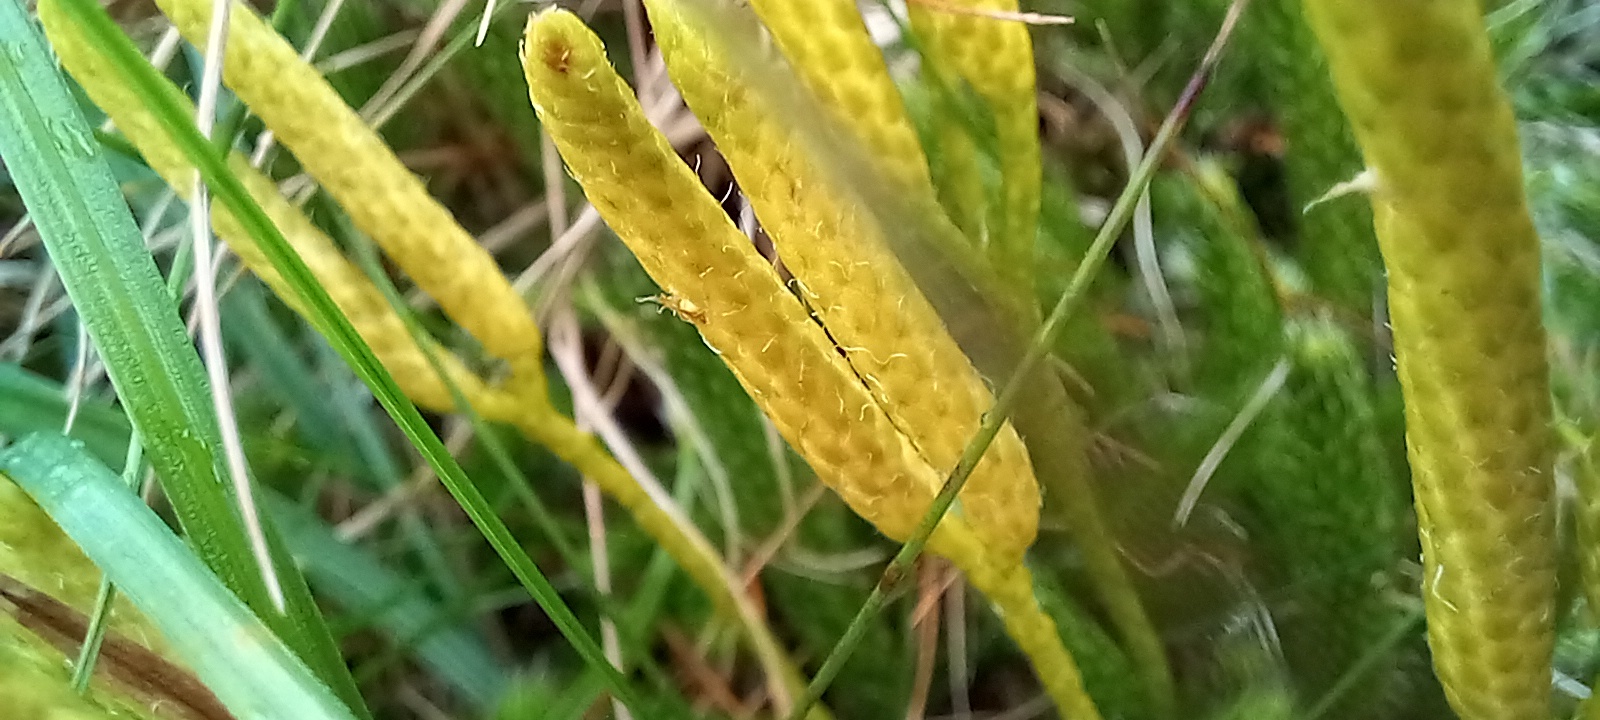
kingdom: Plantae
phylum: Tracheophyta
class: Lycopodiopsida
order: Lycopodiales
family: Lycopodiaceae
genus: Lycopodium
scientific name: Lycopodium clavatum
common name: Stag's-horn clubmoss
